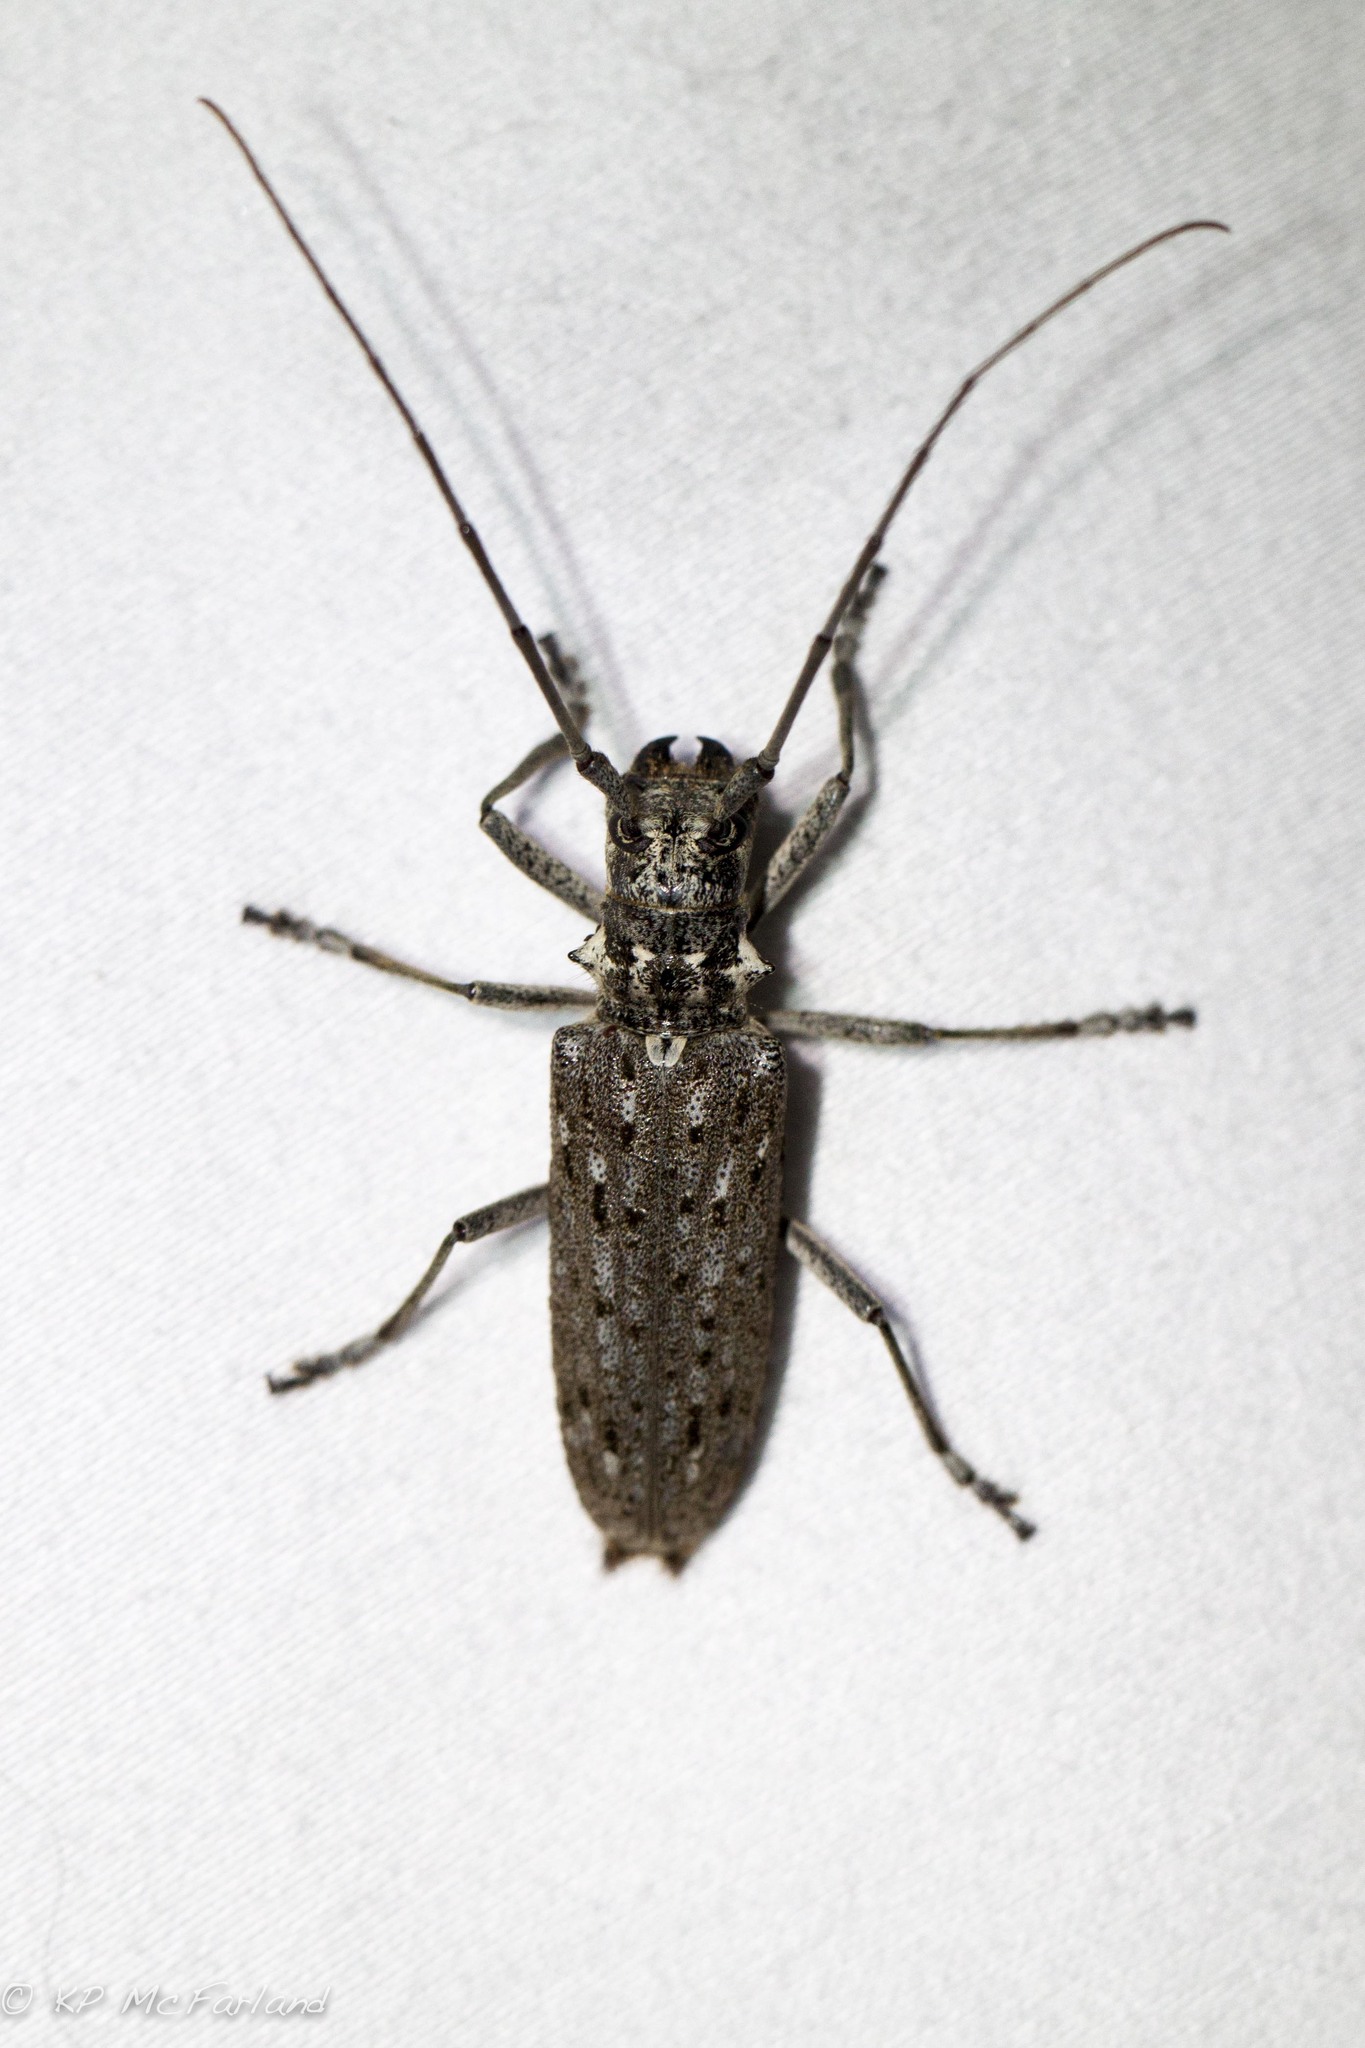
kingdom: Animalia
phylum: Arthropoda
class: Insecta
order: Coleoptera
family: Cerambycidae
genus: Monochamus
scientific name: Monochamus notatus
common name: Northeastern pine sawyer beetle
